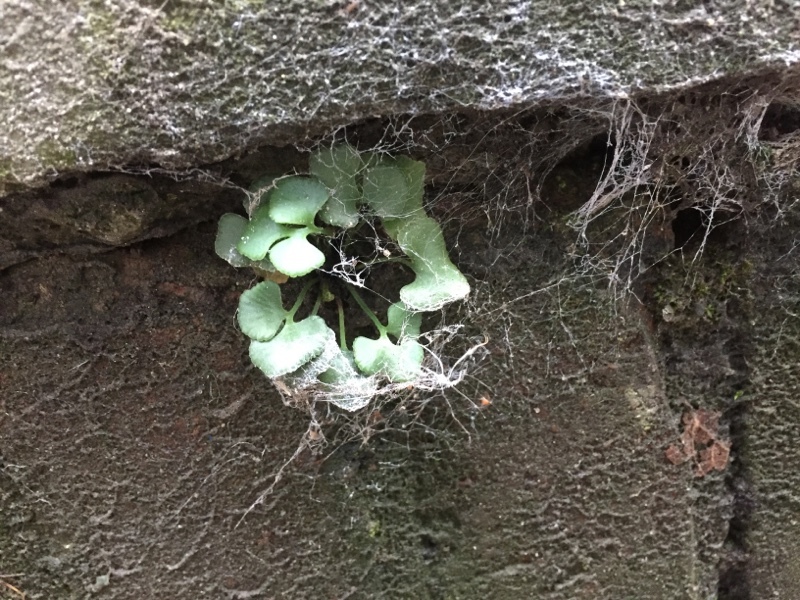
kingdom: Plantae
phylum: Tracheophyta
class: Polypodiopsida
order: Polypodiales
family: Aspleniaceae
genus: Asplenium
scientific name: Asplenium ruta-muraria
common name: Wall-rue
